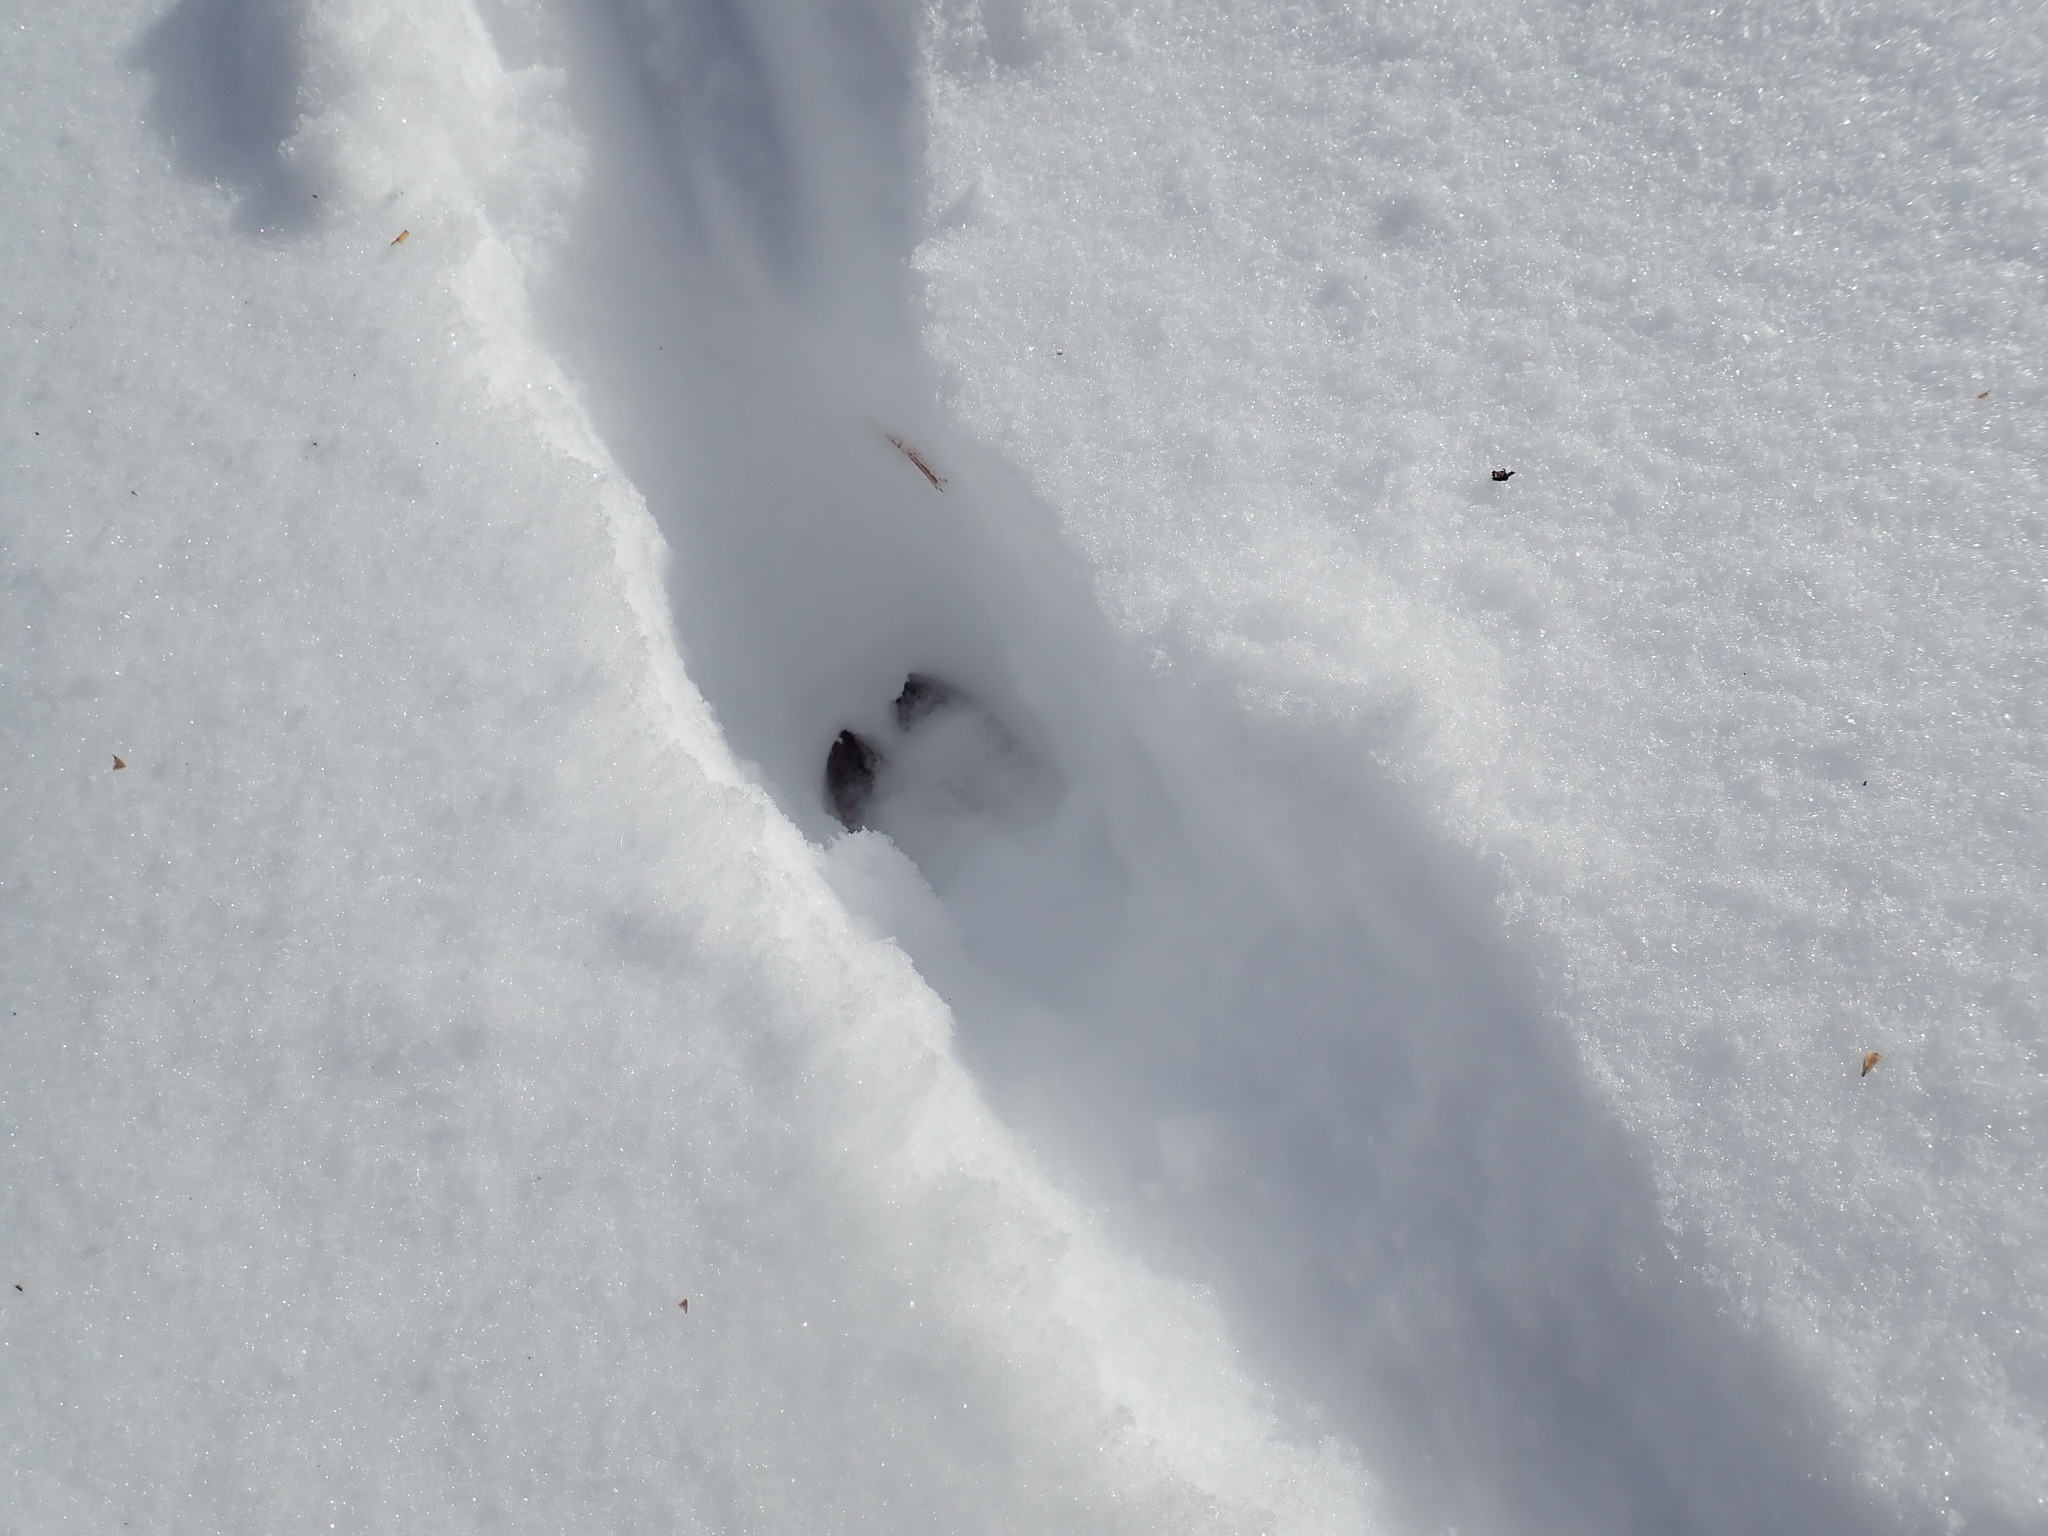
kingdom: Animalia
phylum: Chordata
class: Mammalia
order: Artiodactyla
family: Cervidae
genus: Odocoileus
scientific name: Odocoileus virginianus
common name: White-tailed deer
